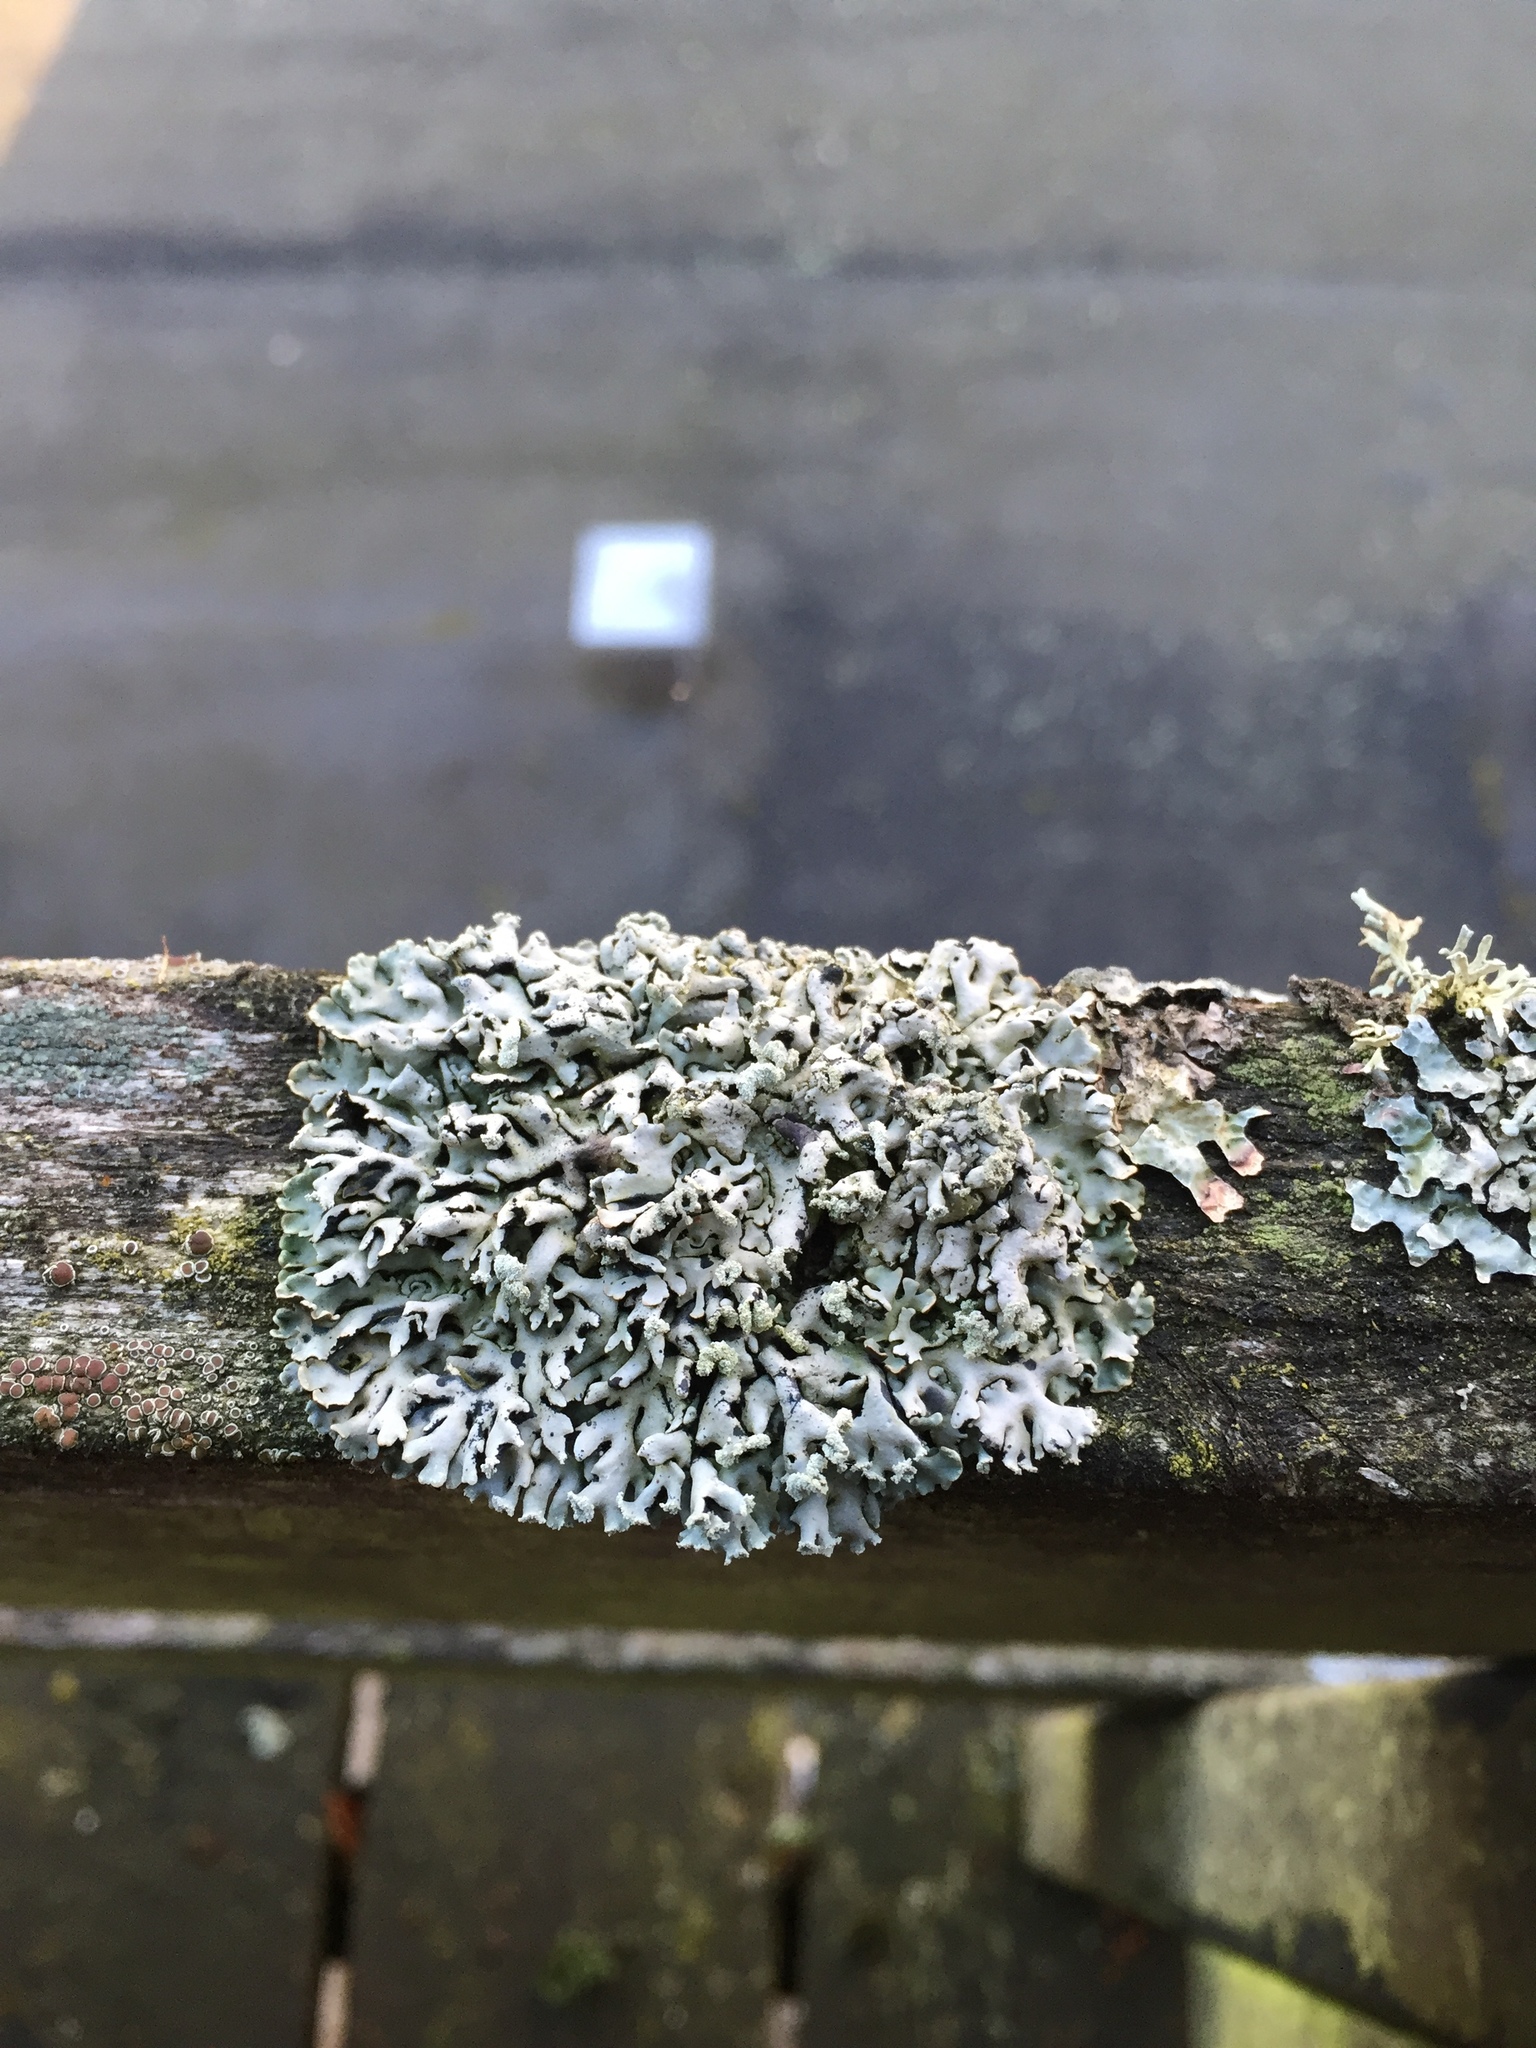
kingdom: Fungi
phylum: Ascomycota
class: Lecanoromycetes
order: Lecanorales
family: Parmeliaceae
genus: Hypogymnia
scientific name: Hypogymnia physodes
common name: Dark crottle
